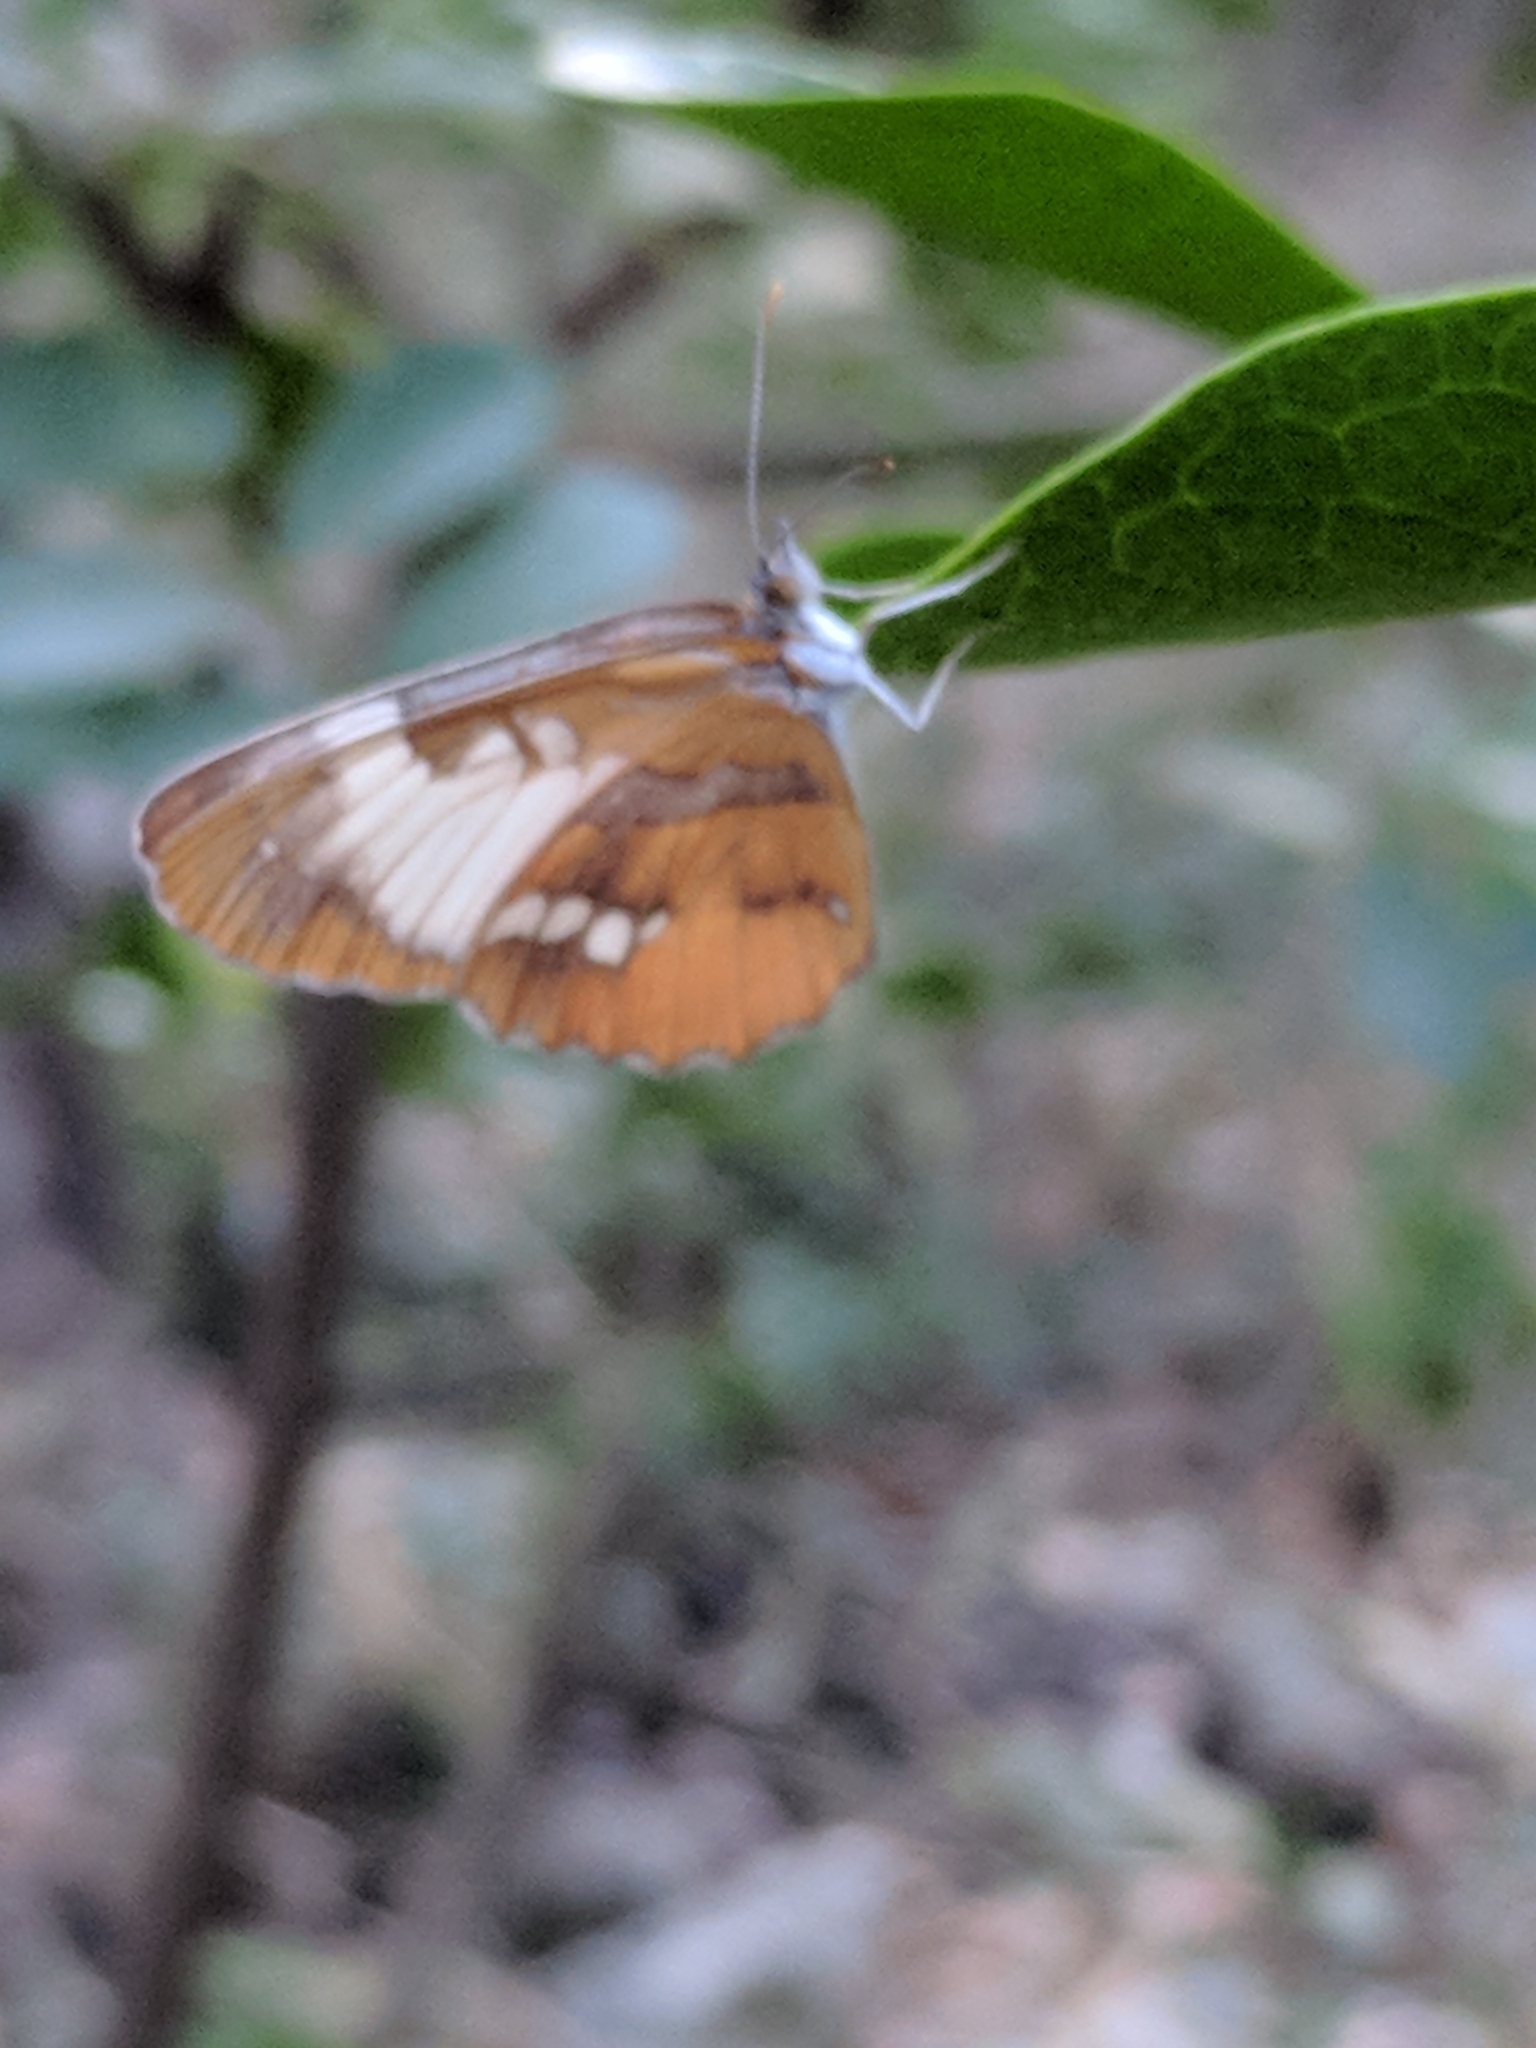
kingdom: Animalia
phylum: Arthropoda
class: Insecta
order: Lepidoptera
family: Nymphalidae
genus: Mestra
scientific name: Mestra amymone
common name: Common mestra
